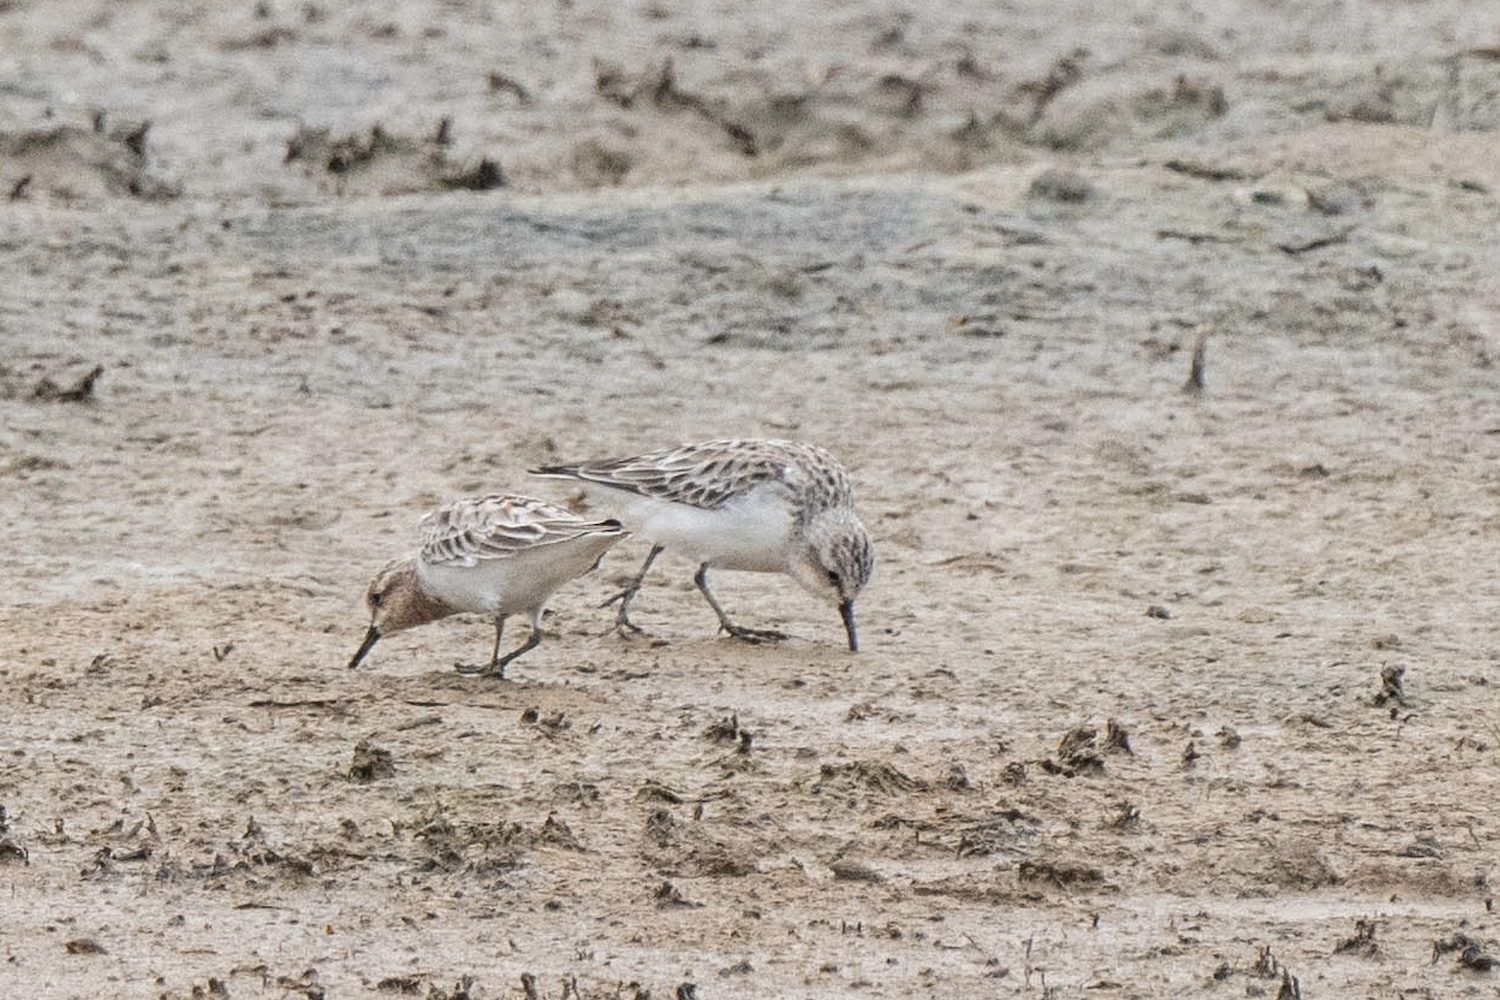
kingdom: Animalia
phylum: Chordata
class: Aves
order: Charadriiformes
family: Scolopacidae
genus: Calidris
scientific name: Calidris ruficollis
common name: Red-necked stint
